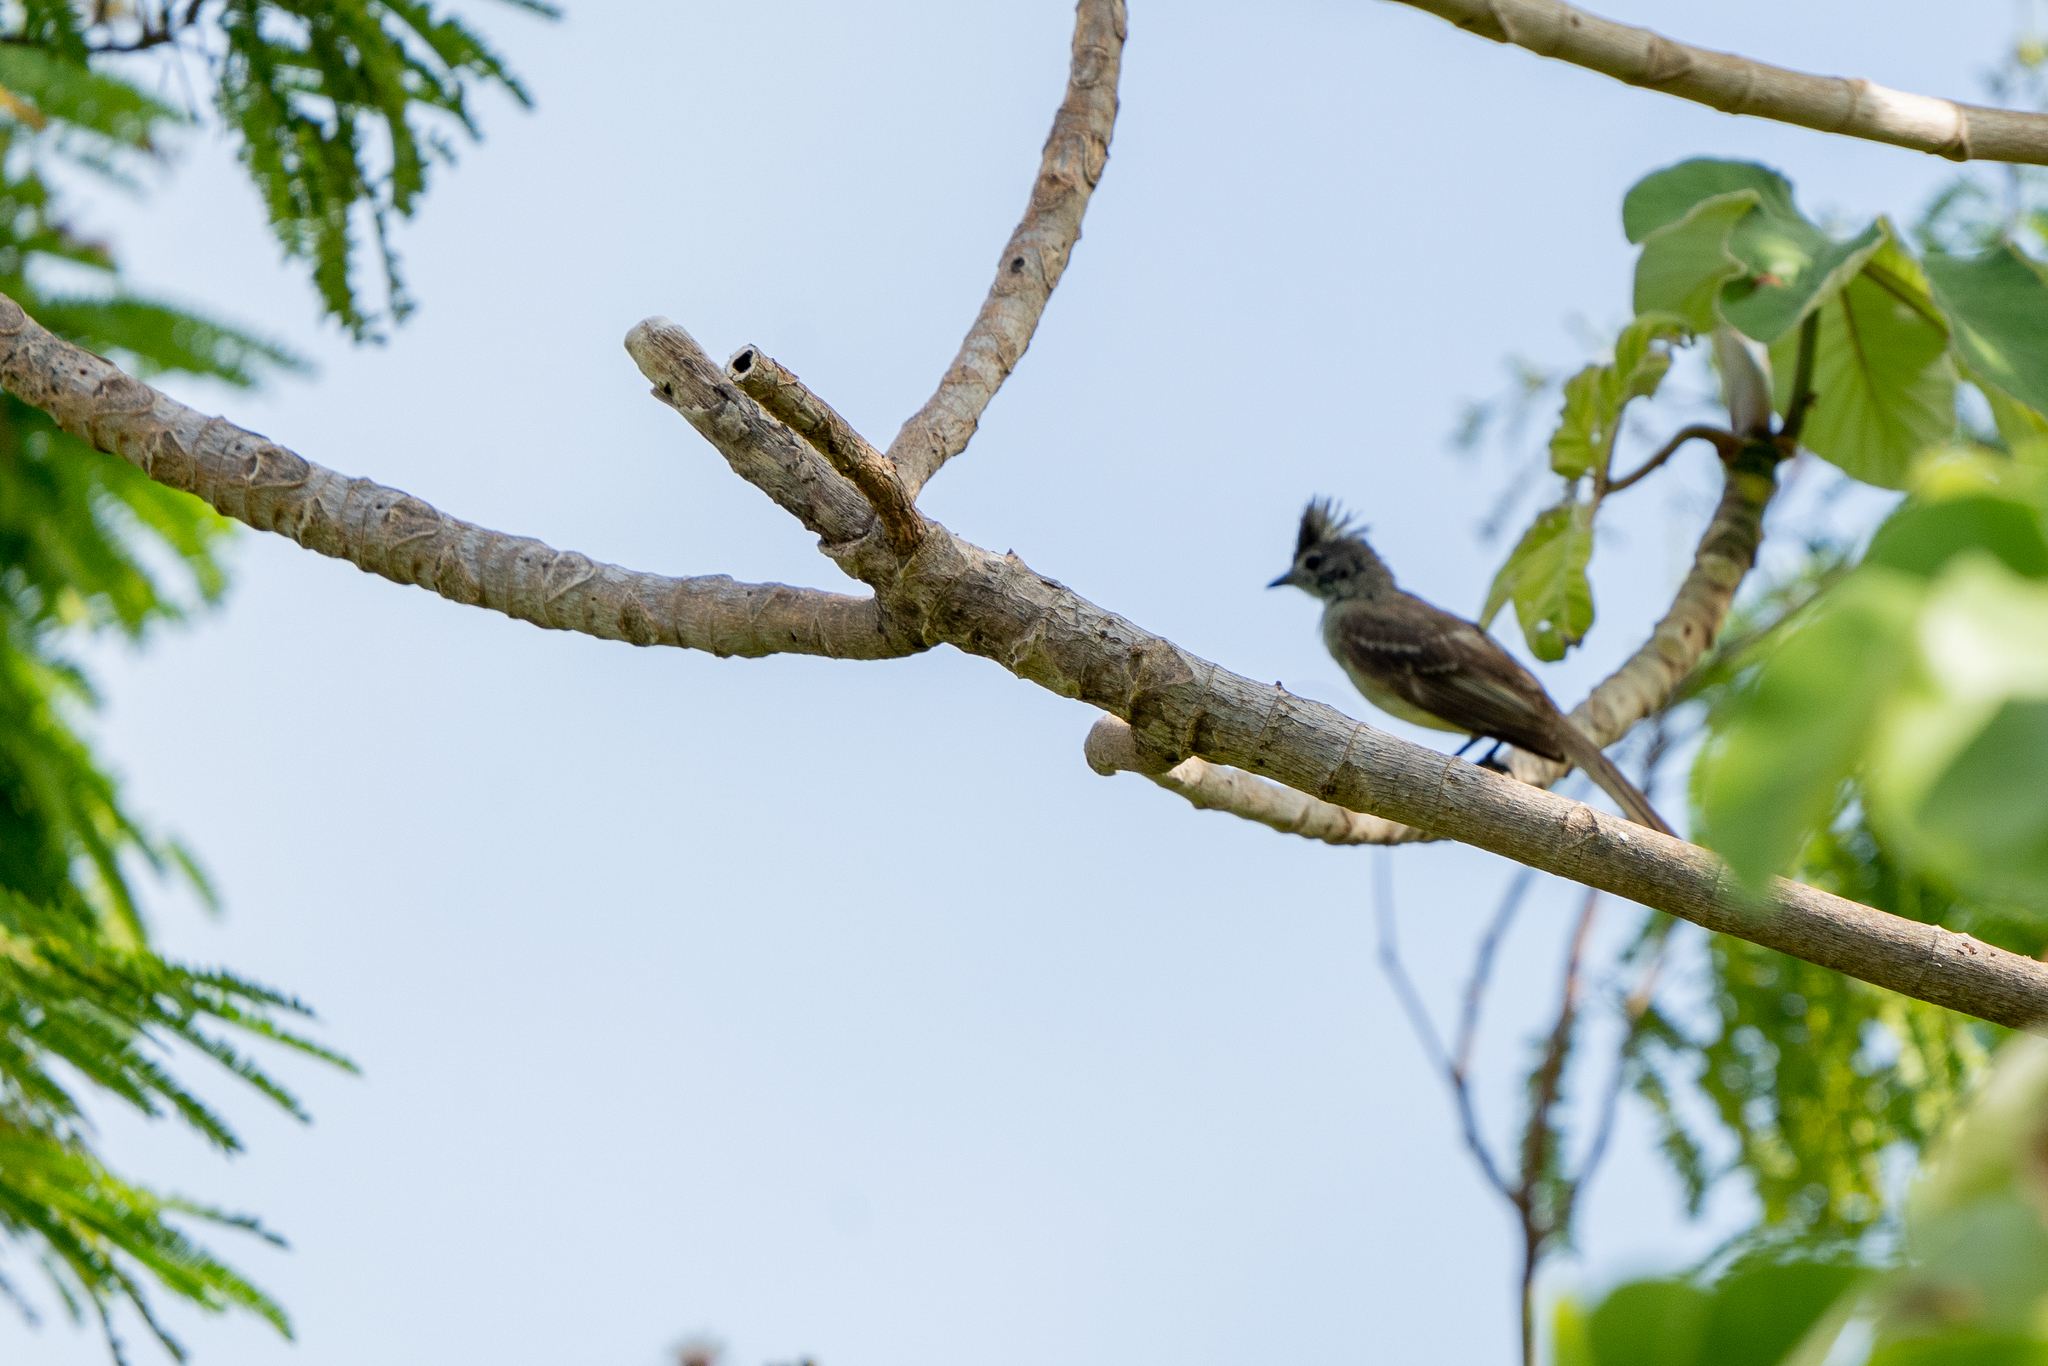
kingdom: Animalia
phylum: Chordata
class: Aves
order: Passeriformes
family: Tyrannidae
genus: Elaenia
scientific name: Elaenia flavogaster
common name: Yellow-bellied elaenia
